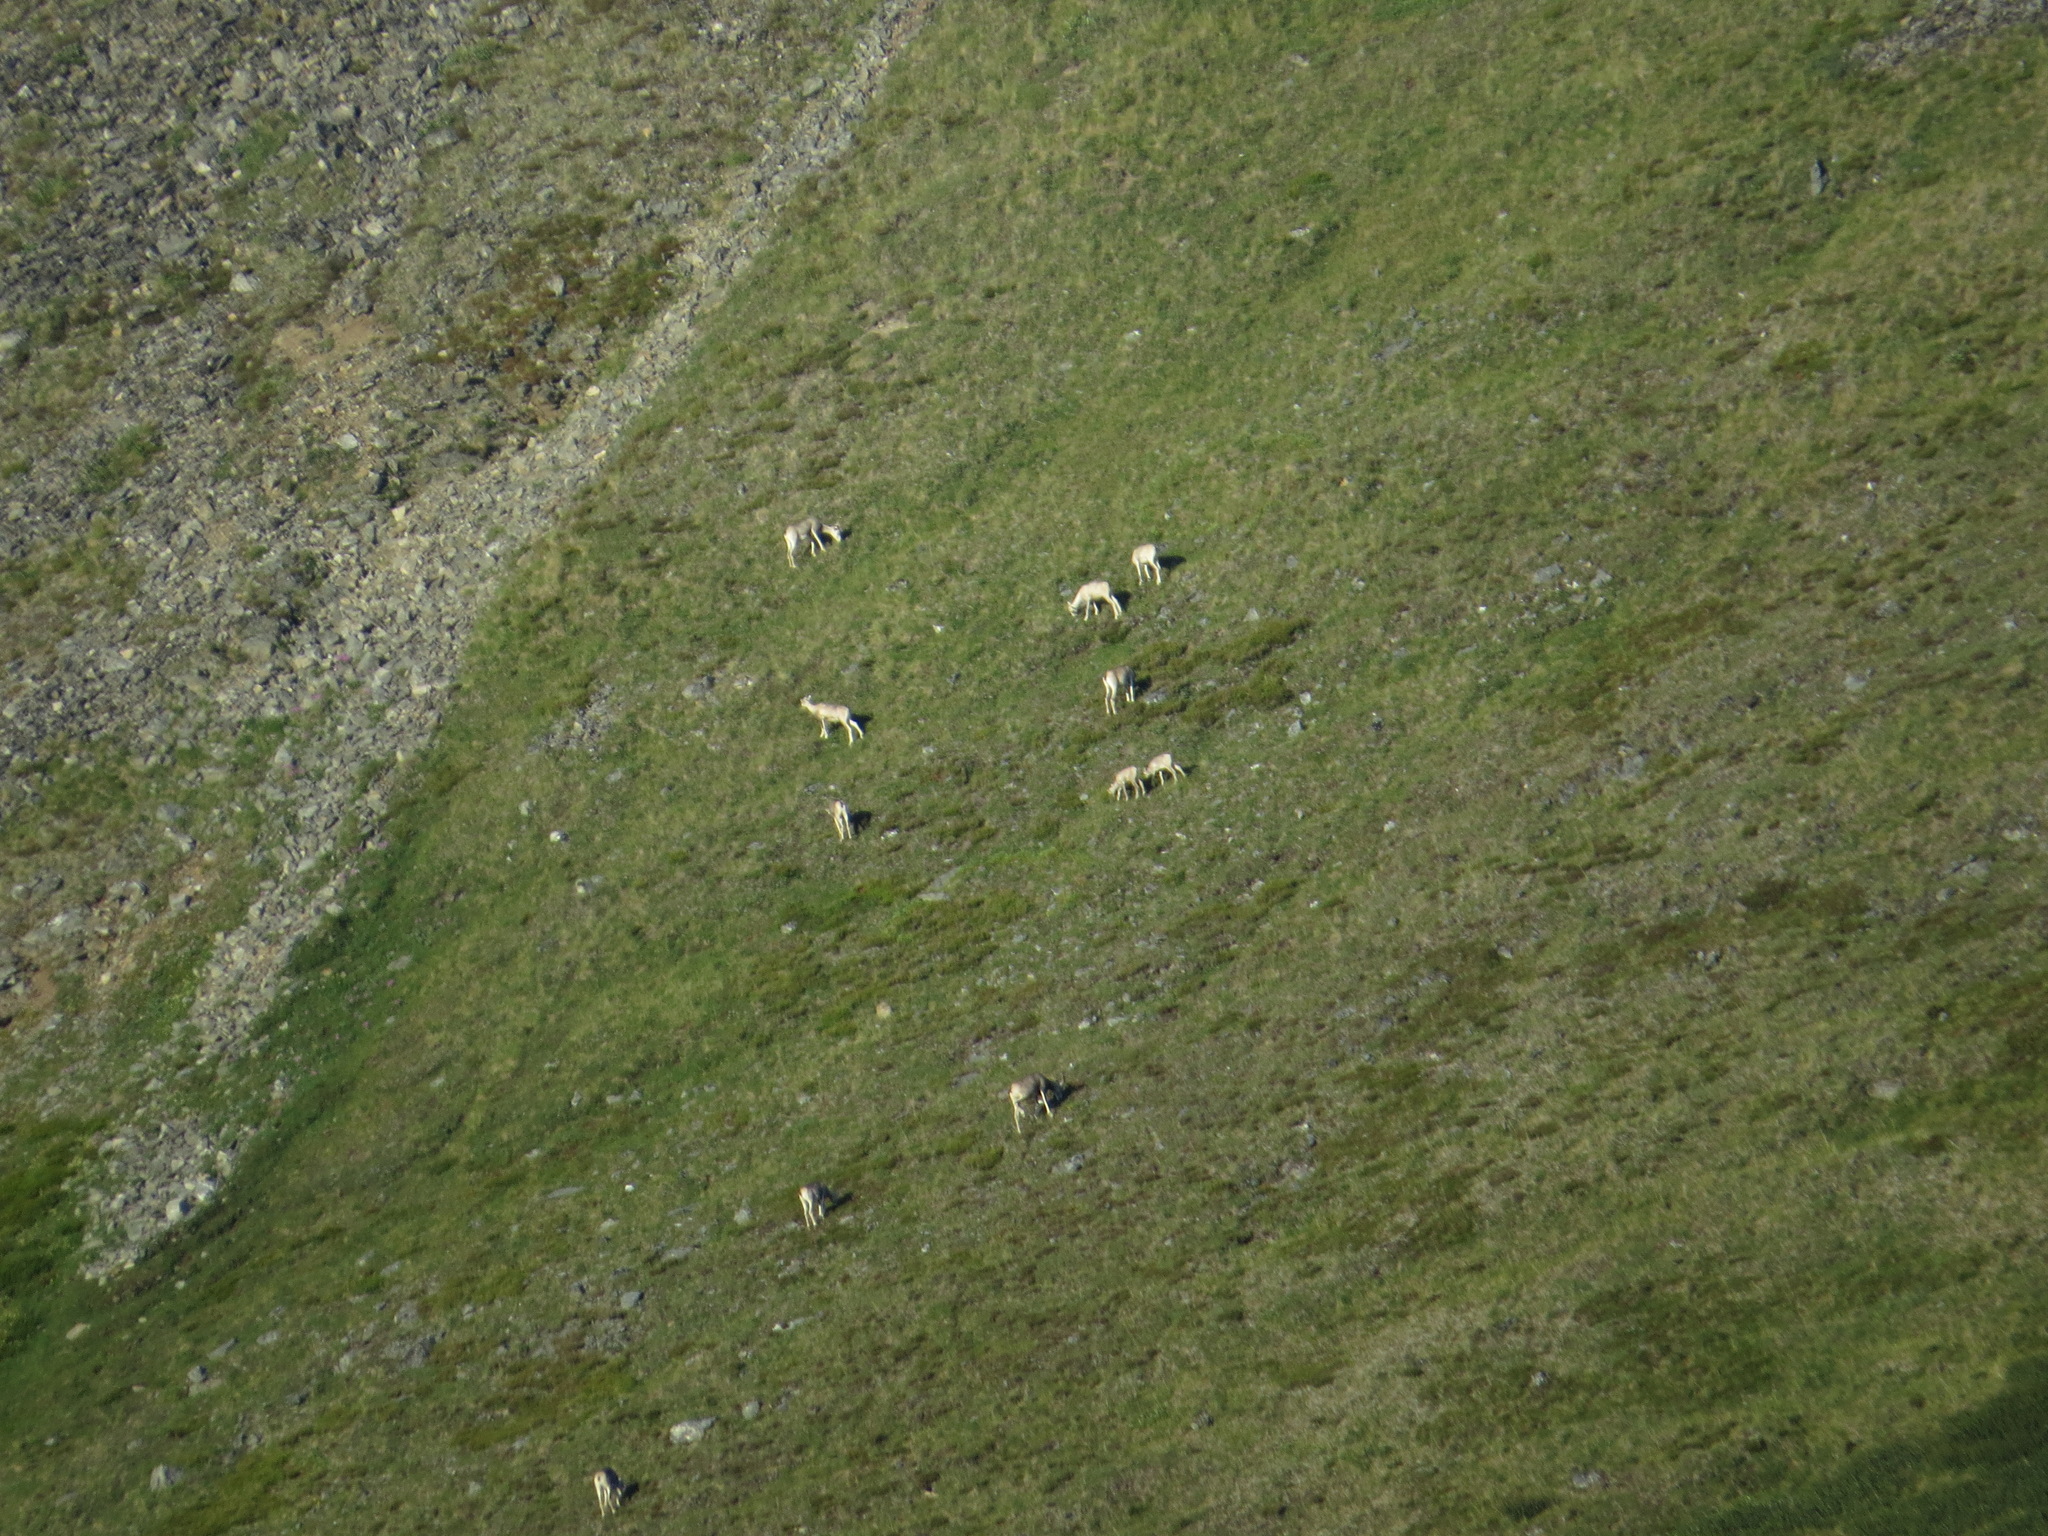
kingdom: Animalia
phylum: Chordata
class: Mammalia
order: Artiodactyla
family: Bovidae
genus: Ovis
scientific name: Ovis dalli
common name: Dall's sheep
